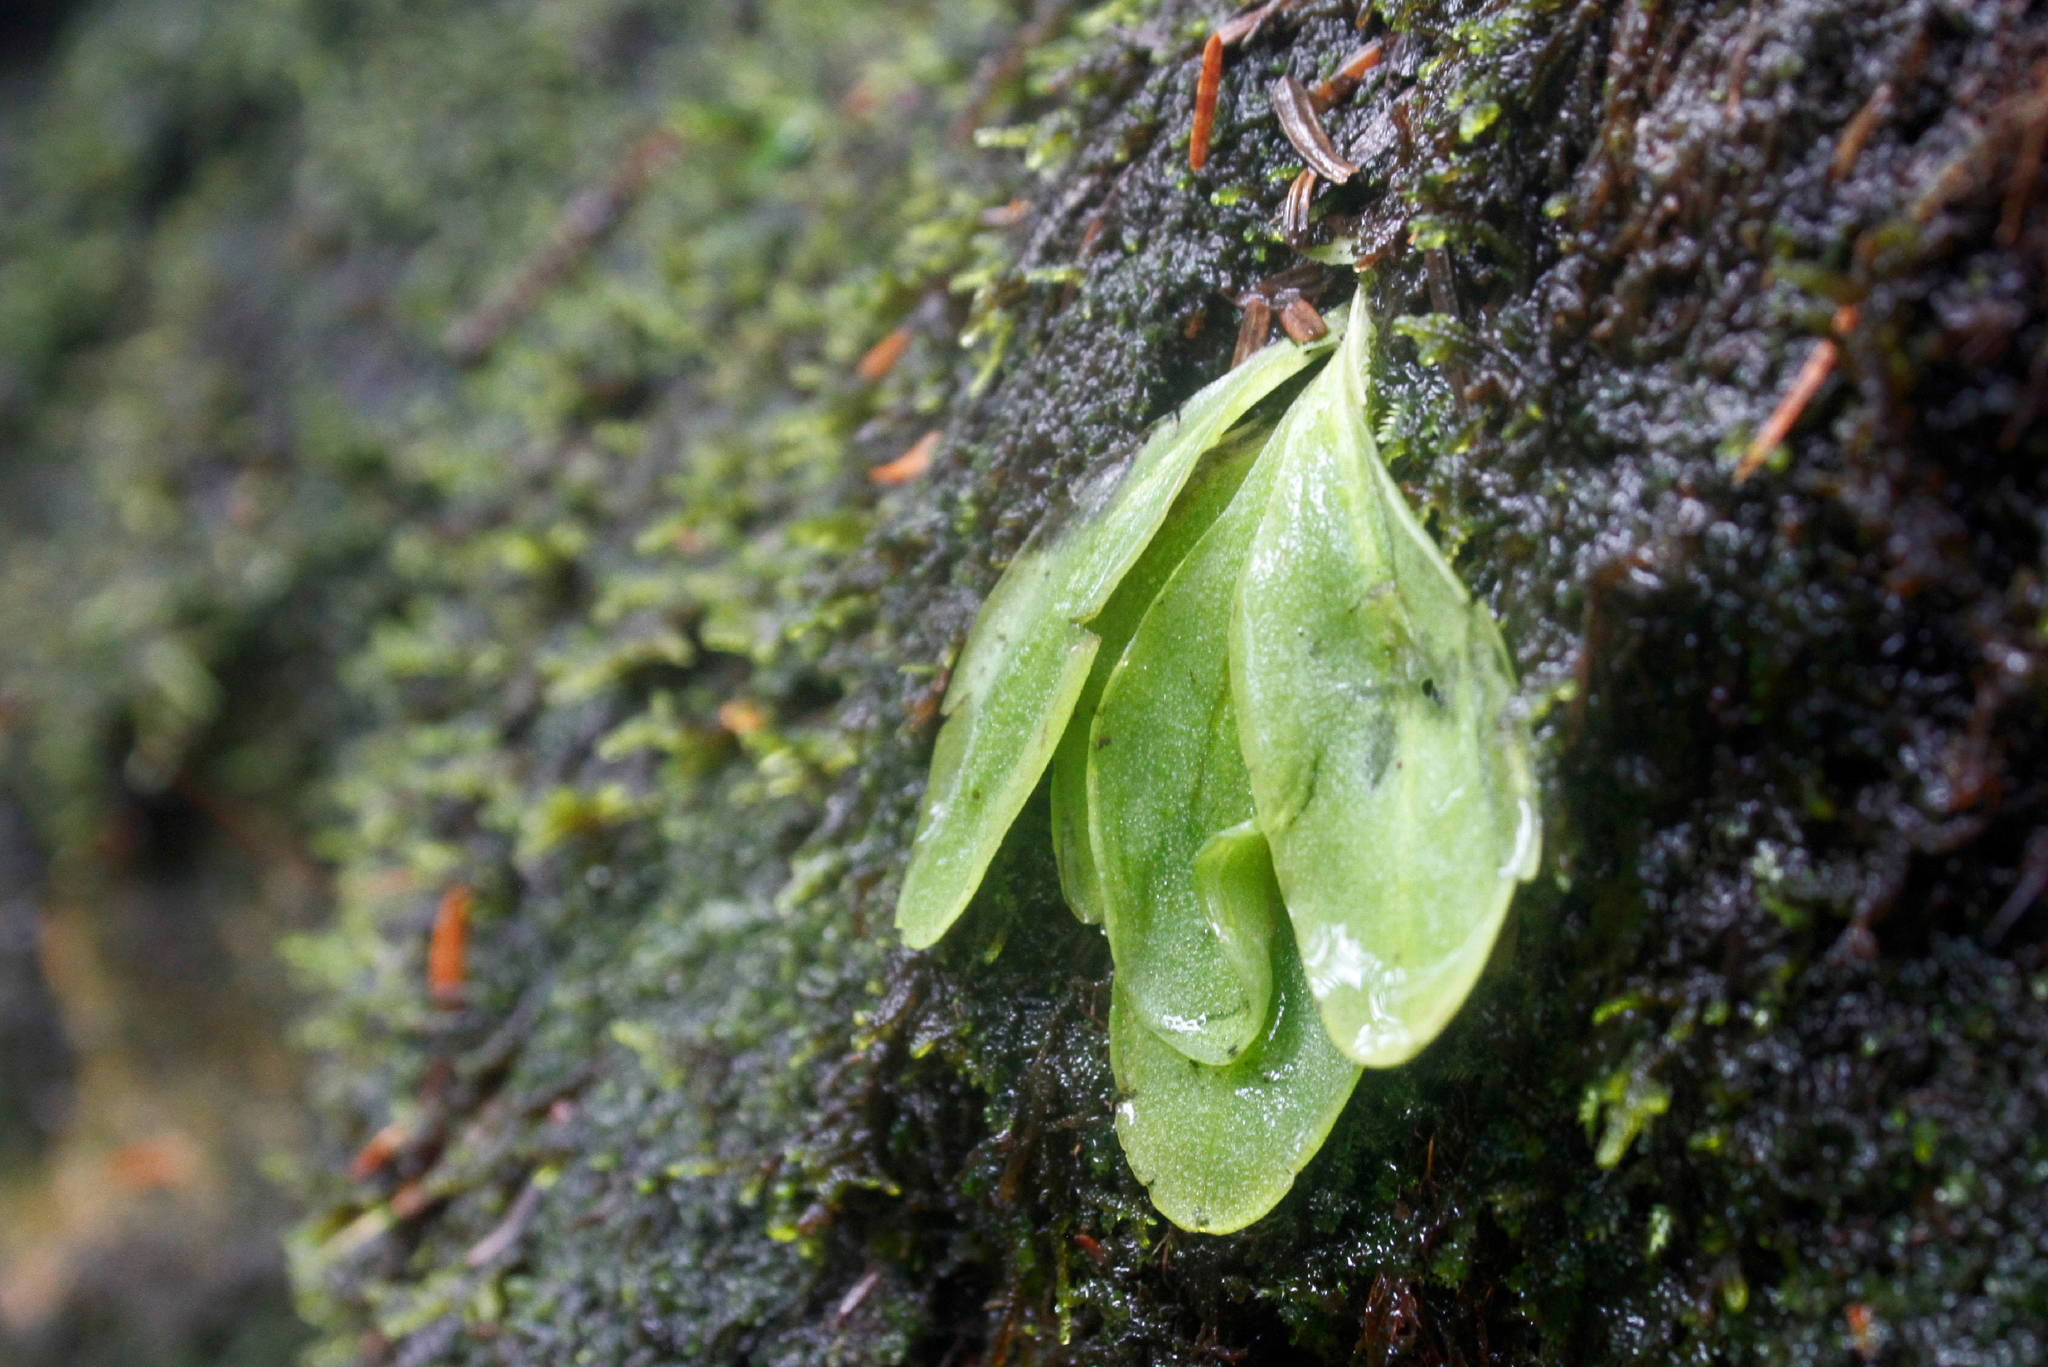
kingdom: Plantae
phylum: Tracheophyta
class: Magnoliopsida
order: Lamiales
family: Lentibulariaceae
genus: Pinguicula
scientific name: Pinguicula vulgaris
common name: Common butterwort
